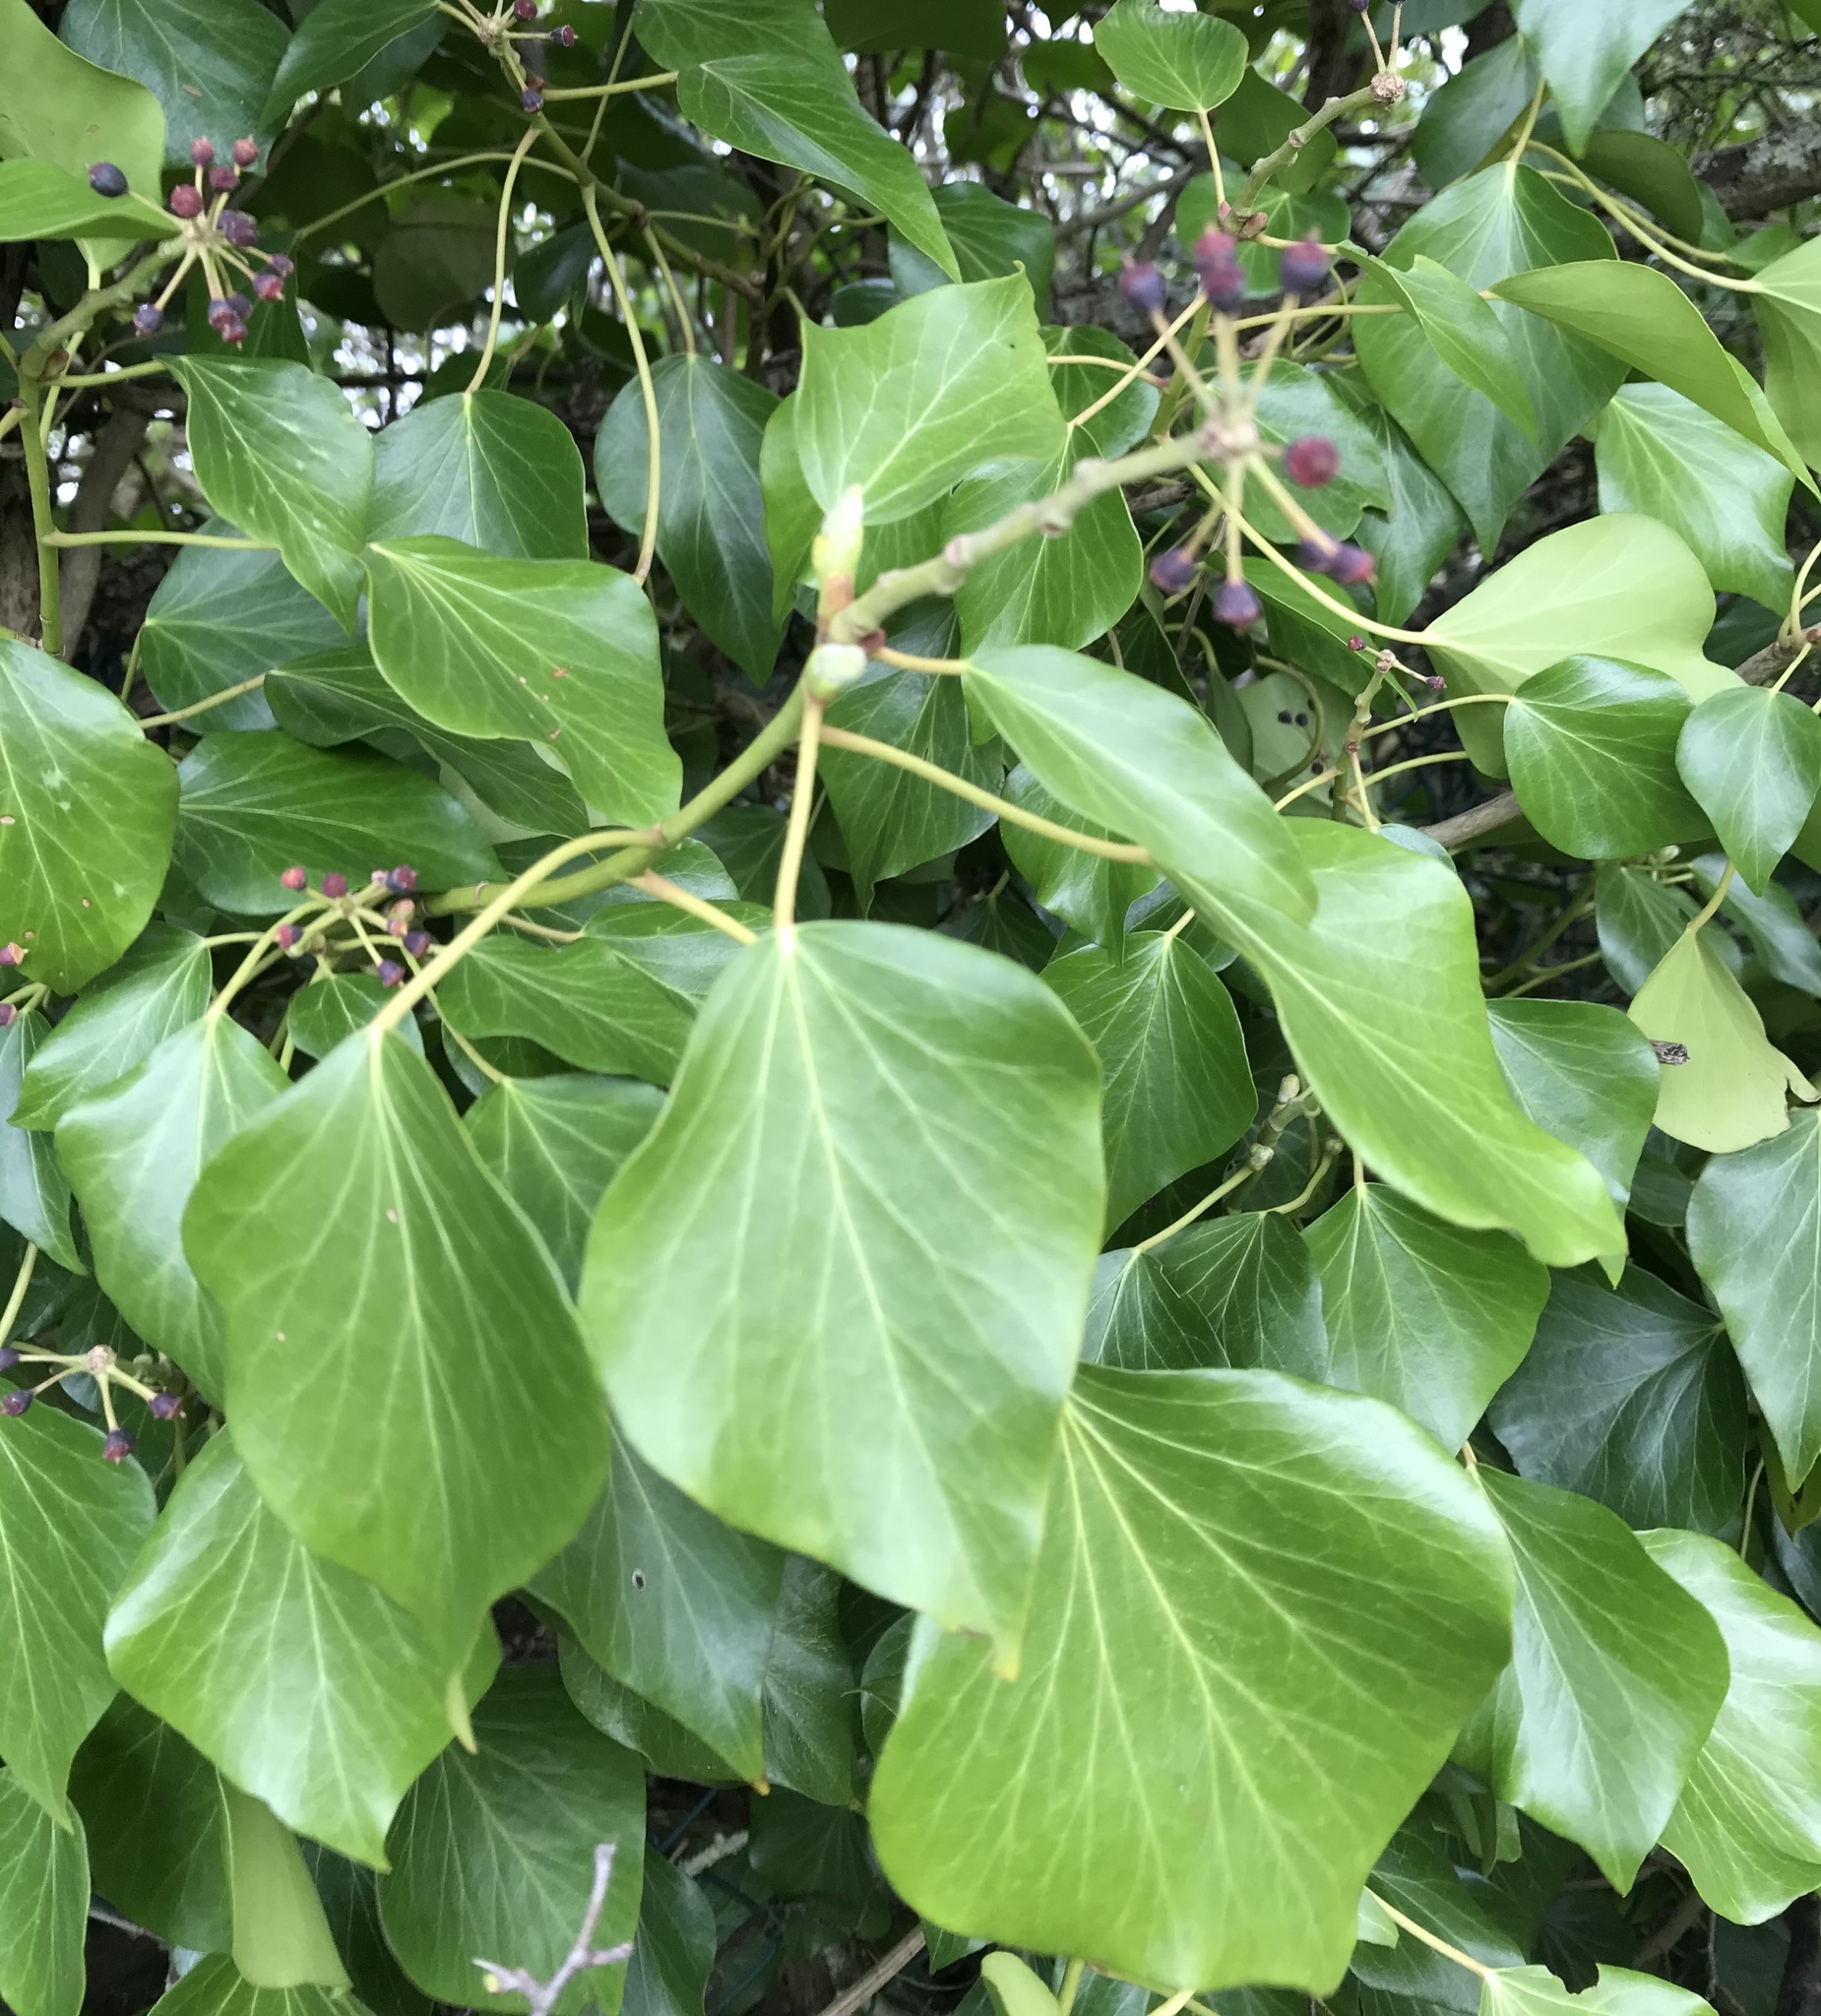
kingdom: Plantae
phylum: Tracheophyta
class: Magnoliopsida
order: Apiales
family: Araliaceae
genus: Hedera
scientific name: Hedera helix
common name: Ivy
